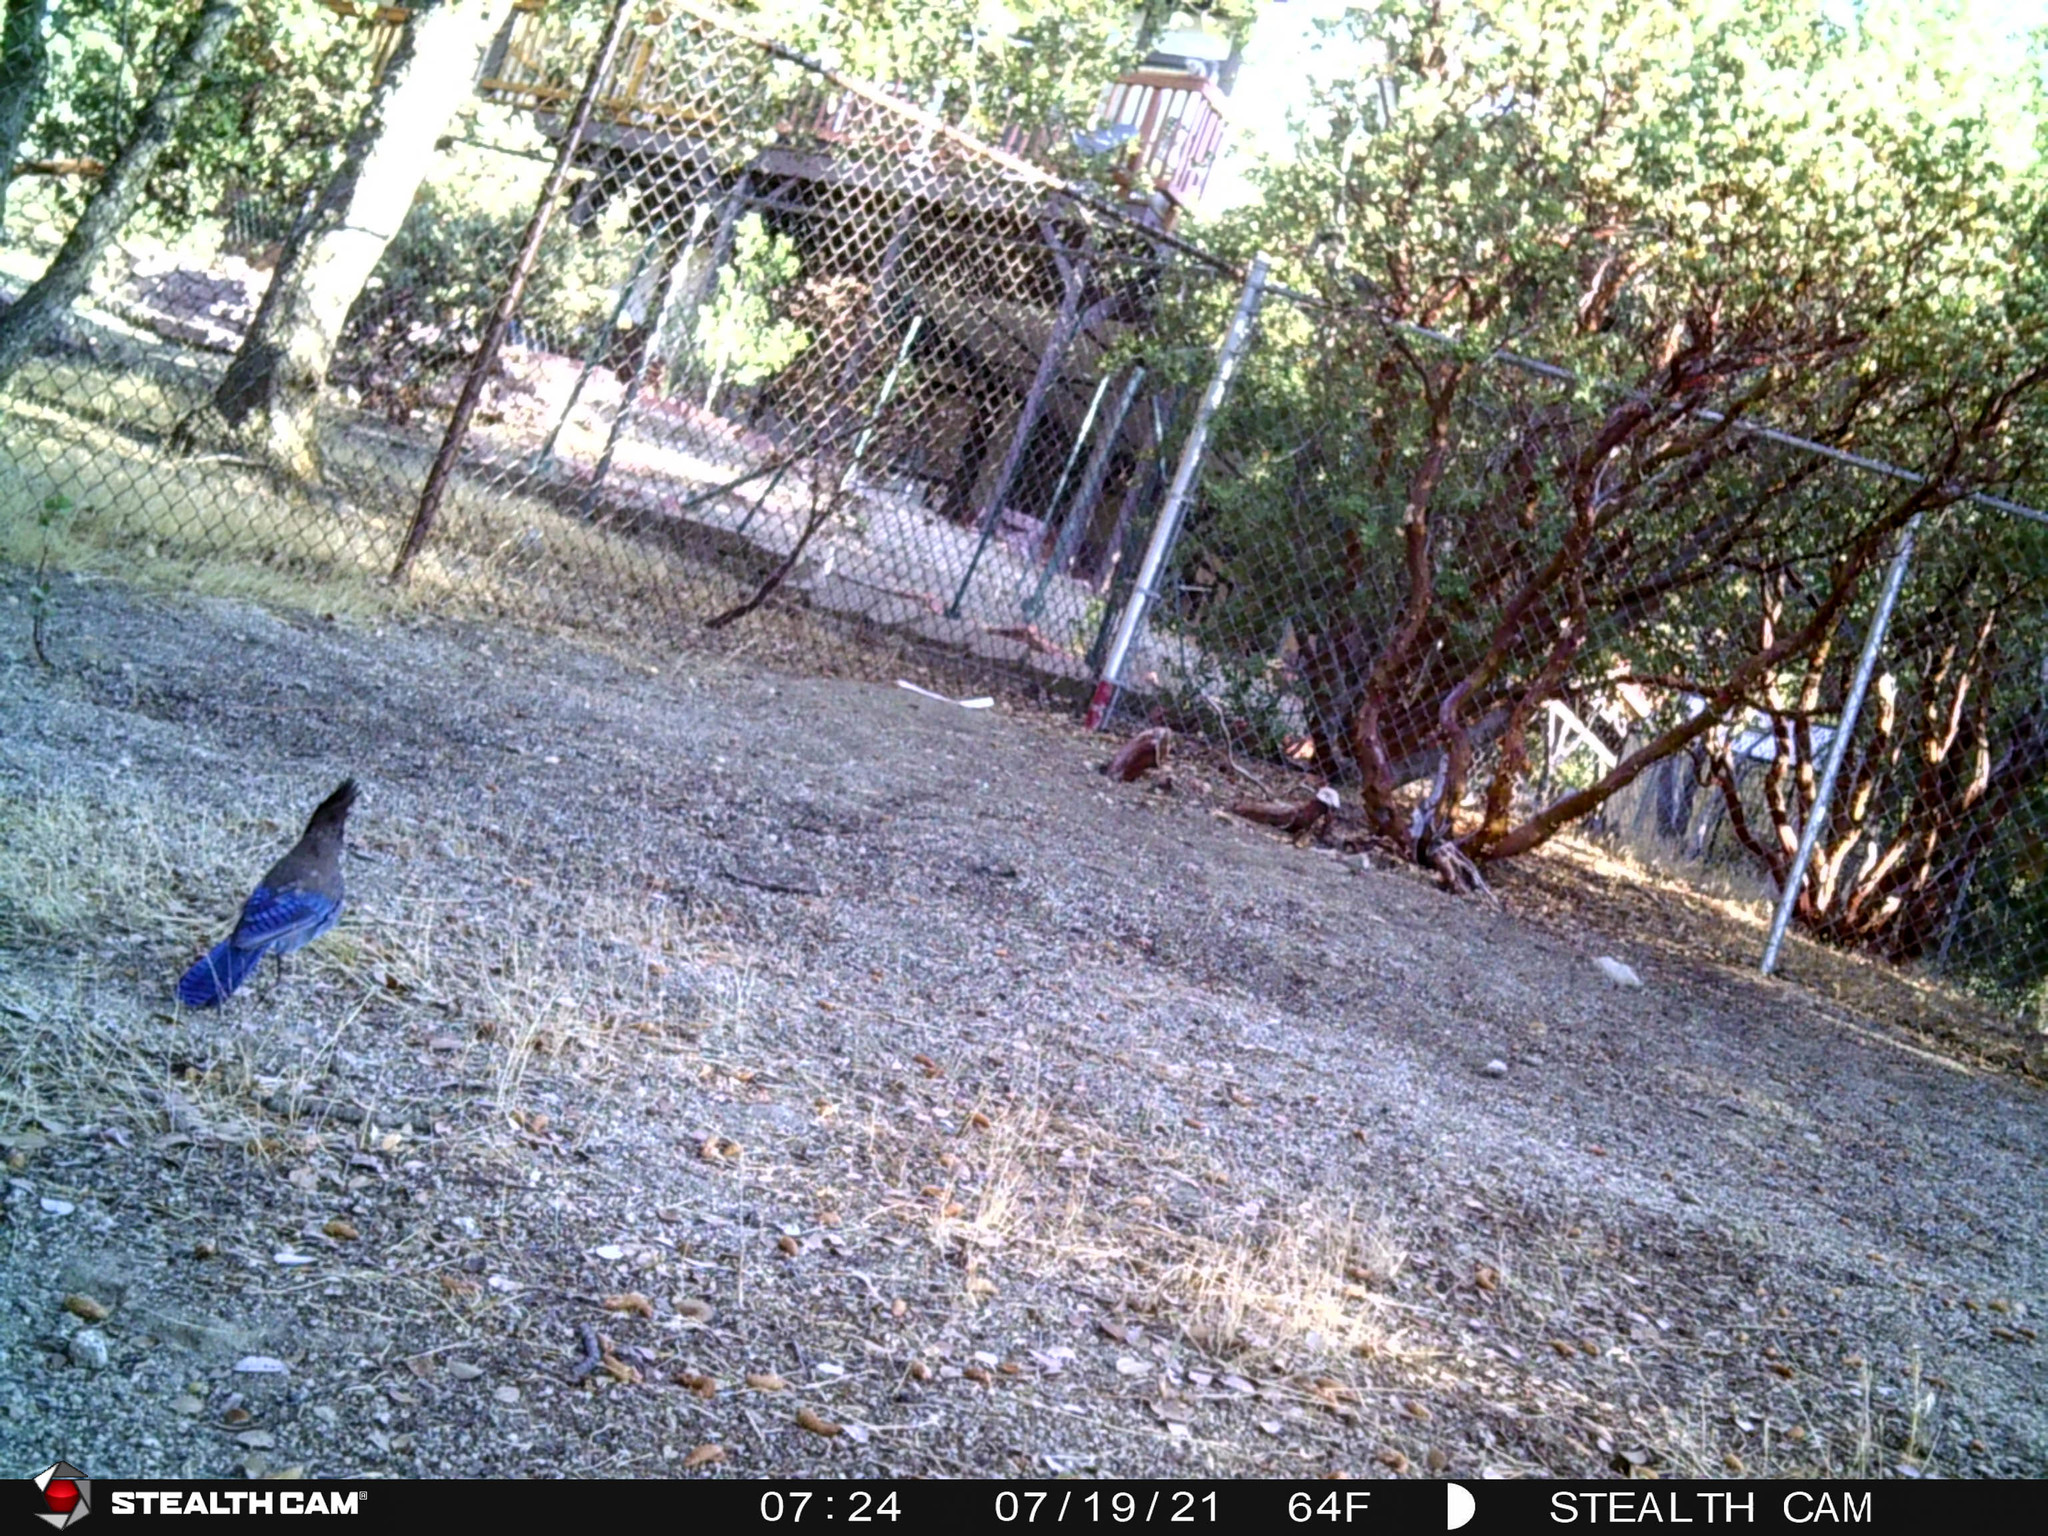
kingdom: Animalia
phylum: Chordata
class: Aves
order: Passeriformes
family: Corvidae
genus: Cyanocitta
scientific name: Cyanocitta stelleri
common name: Steller's jay
